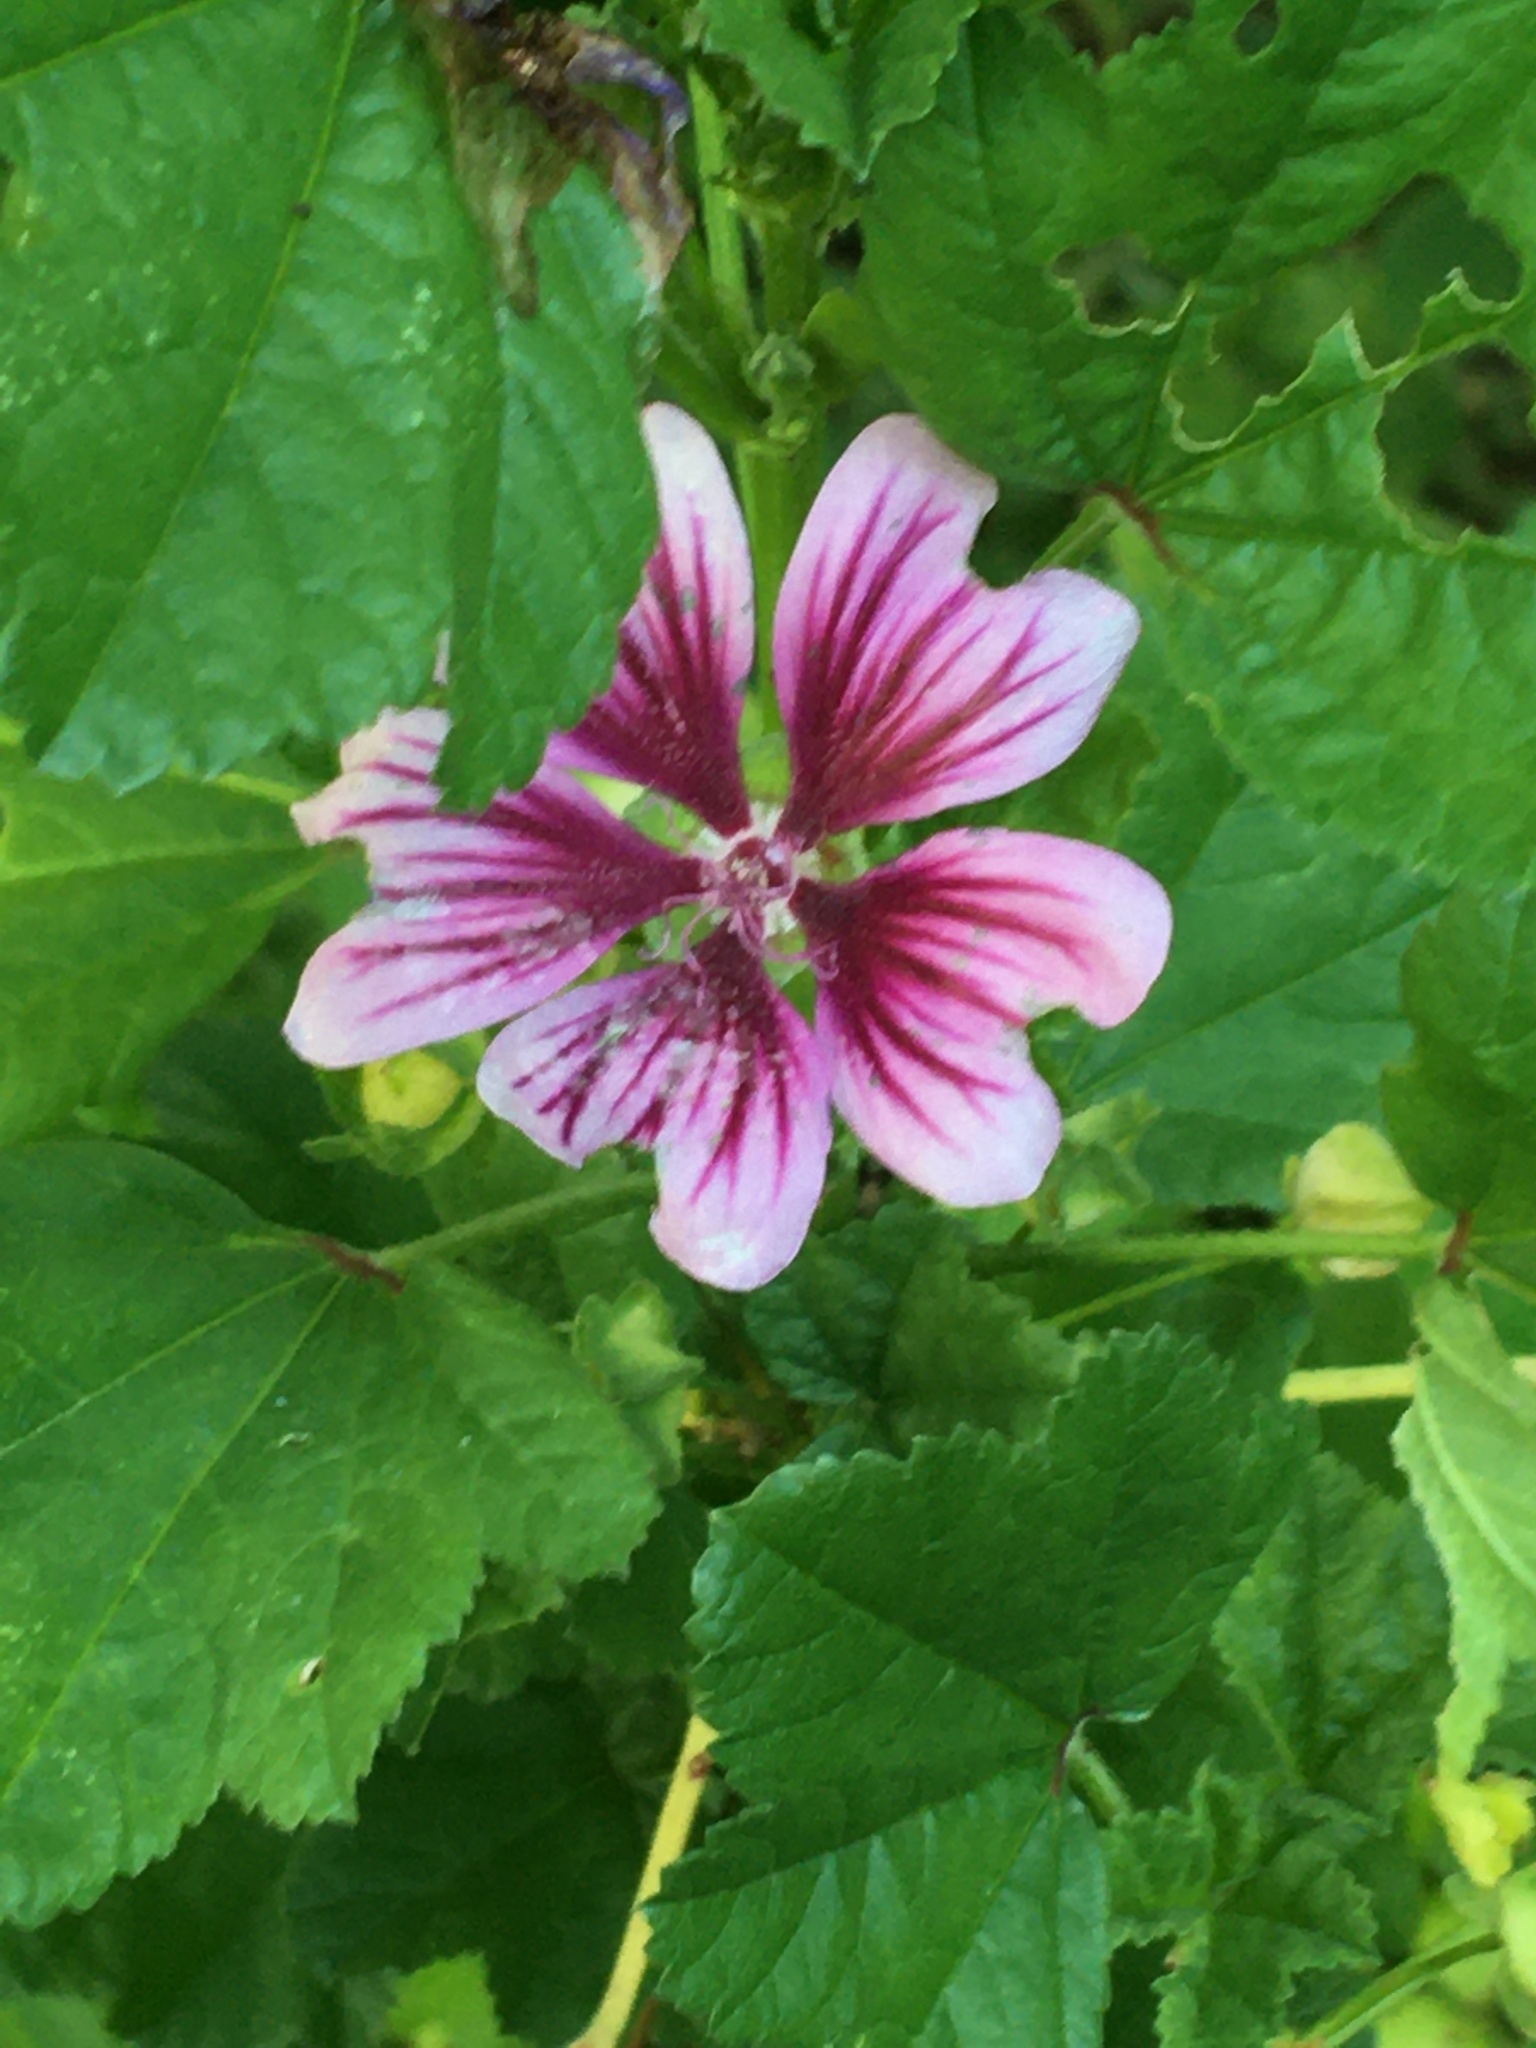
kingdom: Plantae
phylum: Tracheophyta
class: Magnoliopsida
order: Malvales
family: Malvaceae
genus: Malva
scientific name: Malva sylvestris
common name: Common mallow
